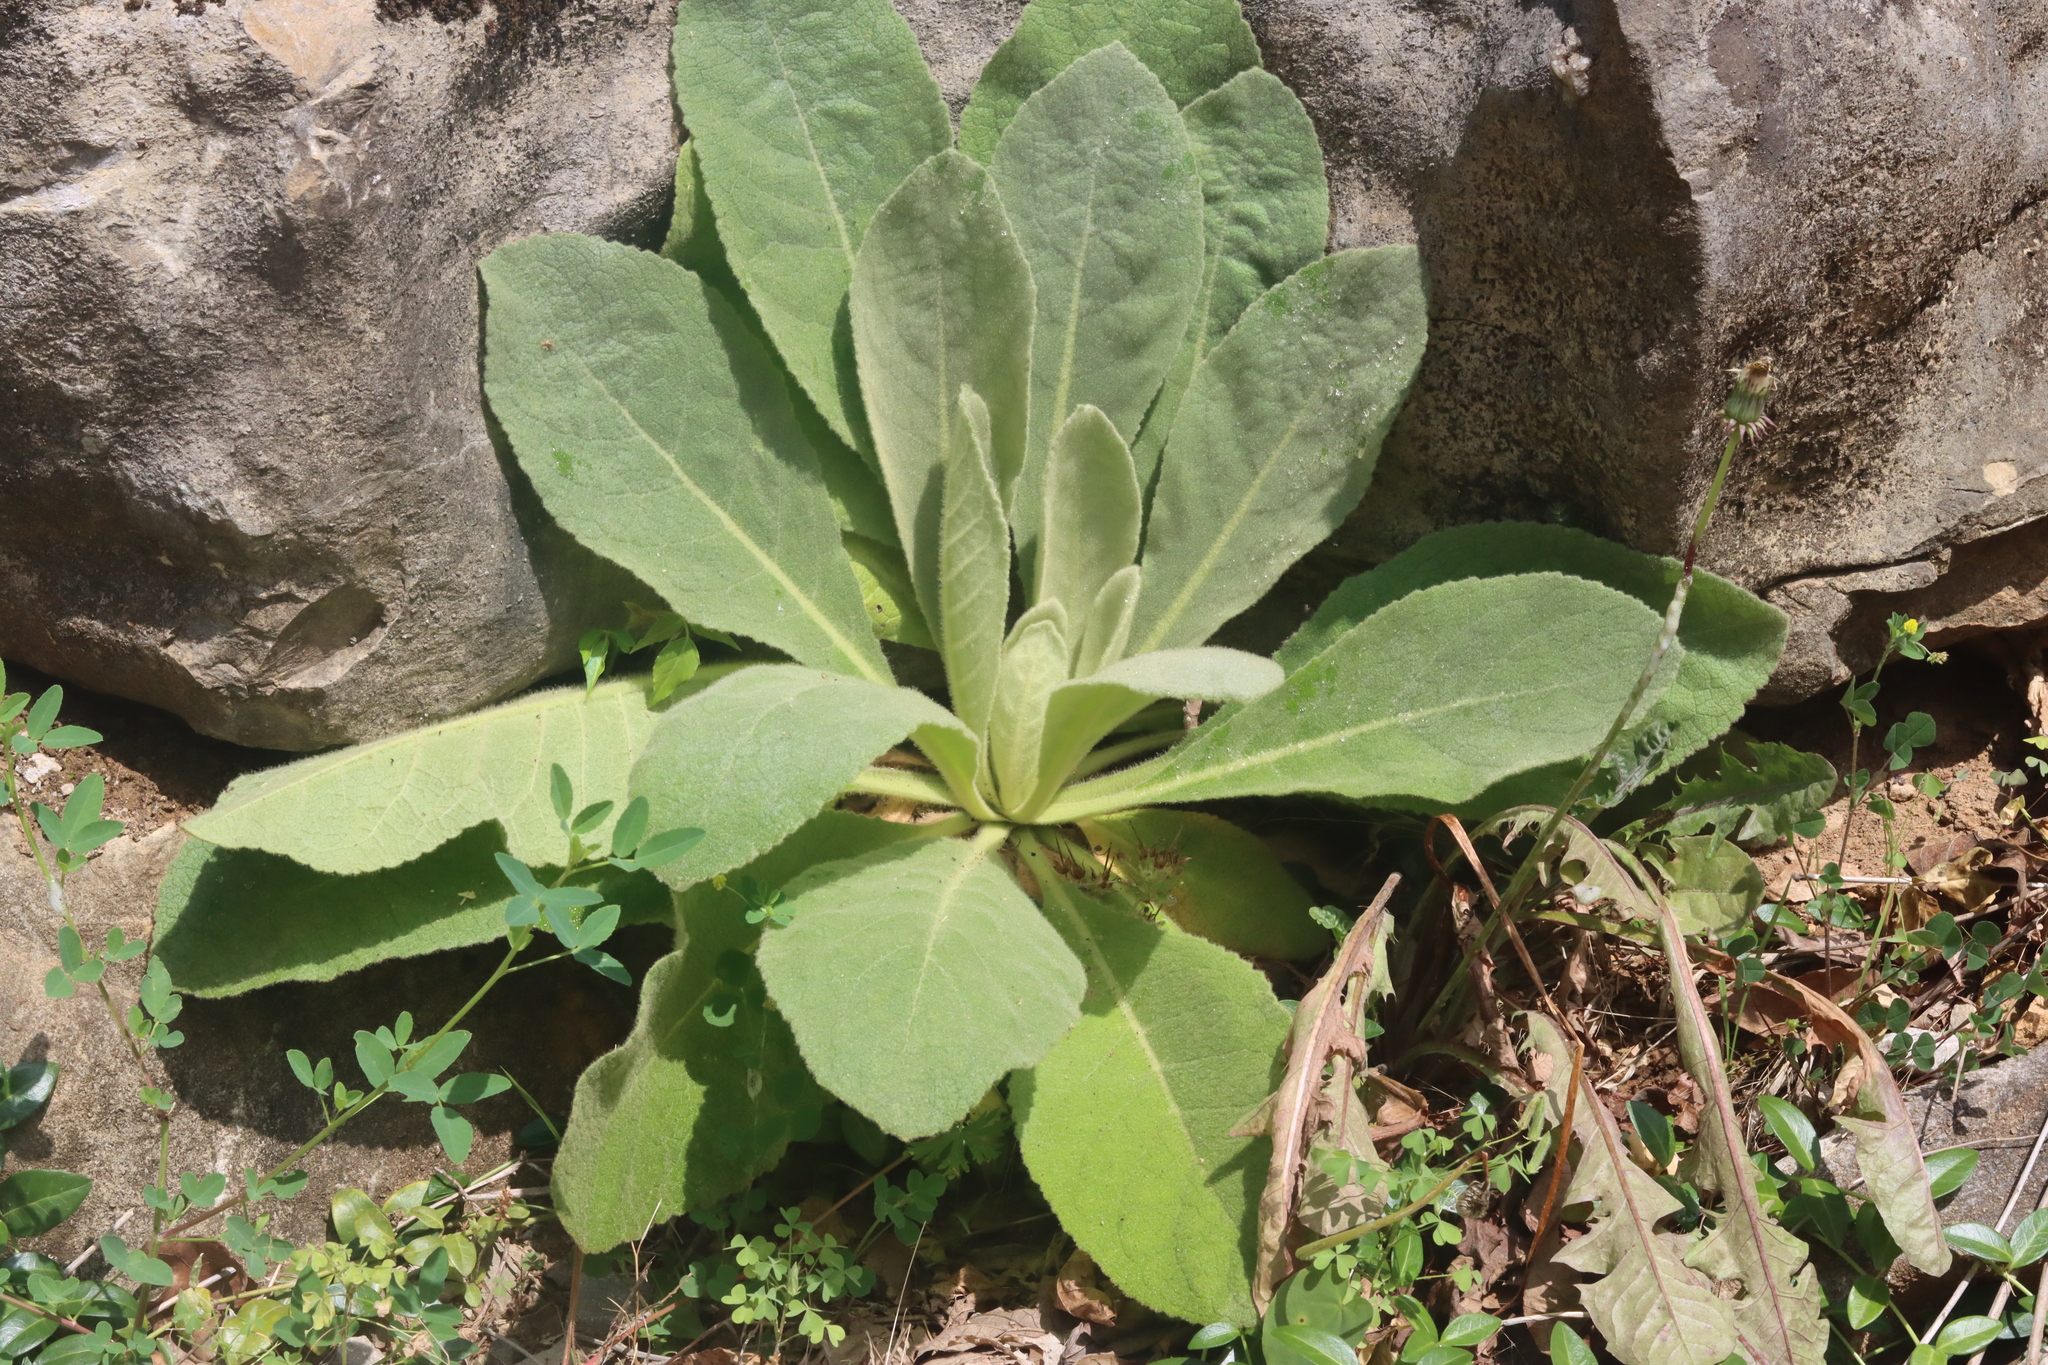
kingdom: Plantae
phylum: Tracheophyta
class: Magnoliopsida
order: Lamiales
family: Scrophulariaceae
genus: Verbascum
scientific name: Verbascum thapsus
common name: Common mullein
